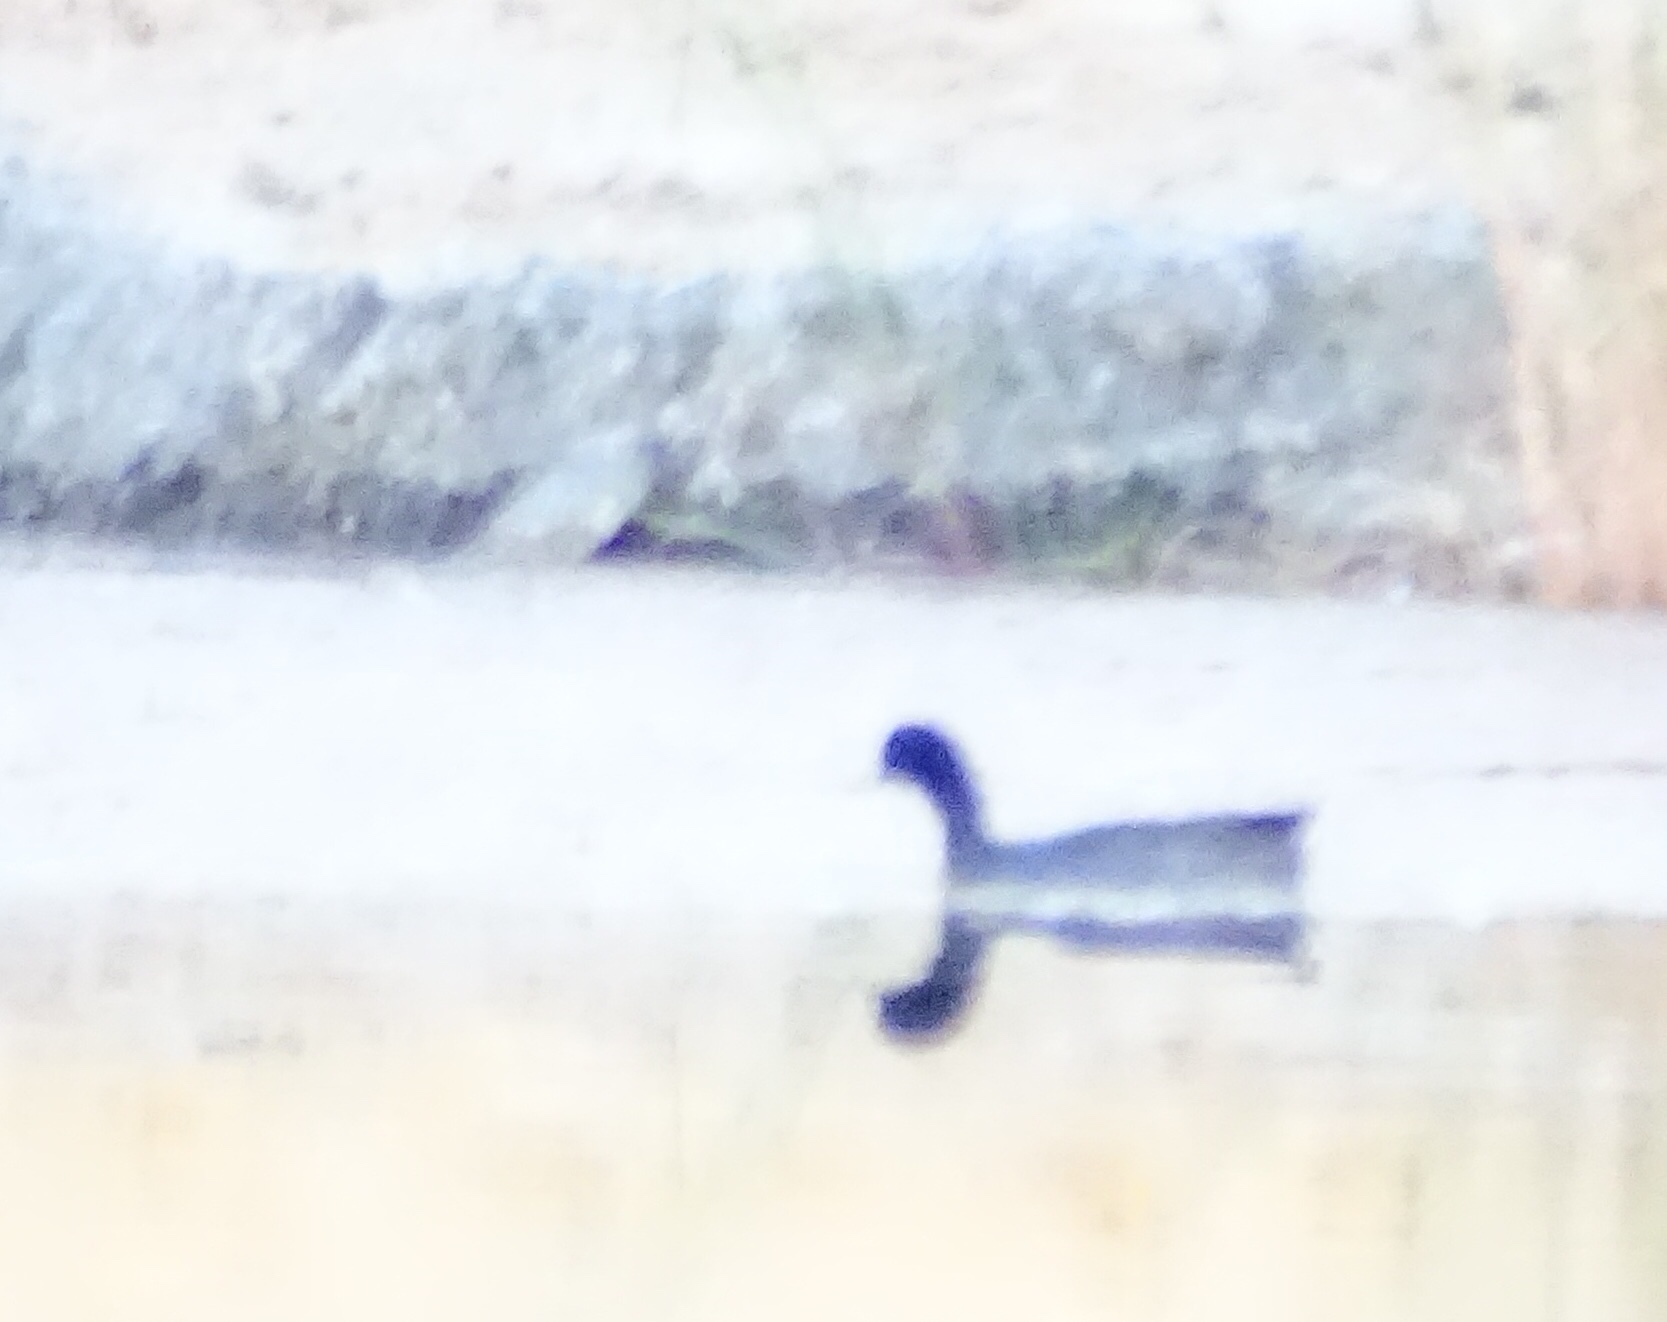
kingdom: Animalia
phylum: Chordata
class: Aves
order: Gruiformes
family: Rallidae
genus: Fulica
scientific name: Fulica americana
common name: American coot
